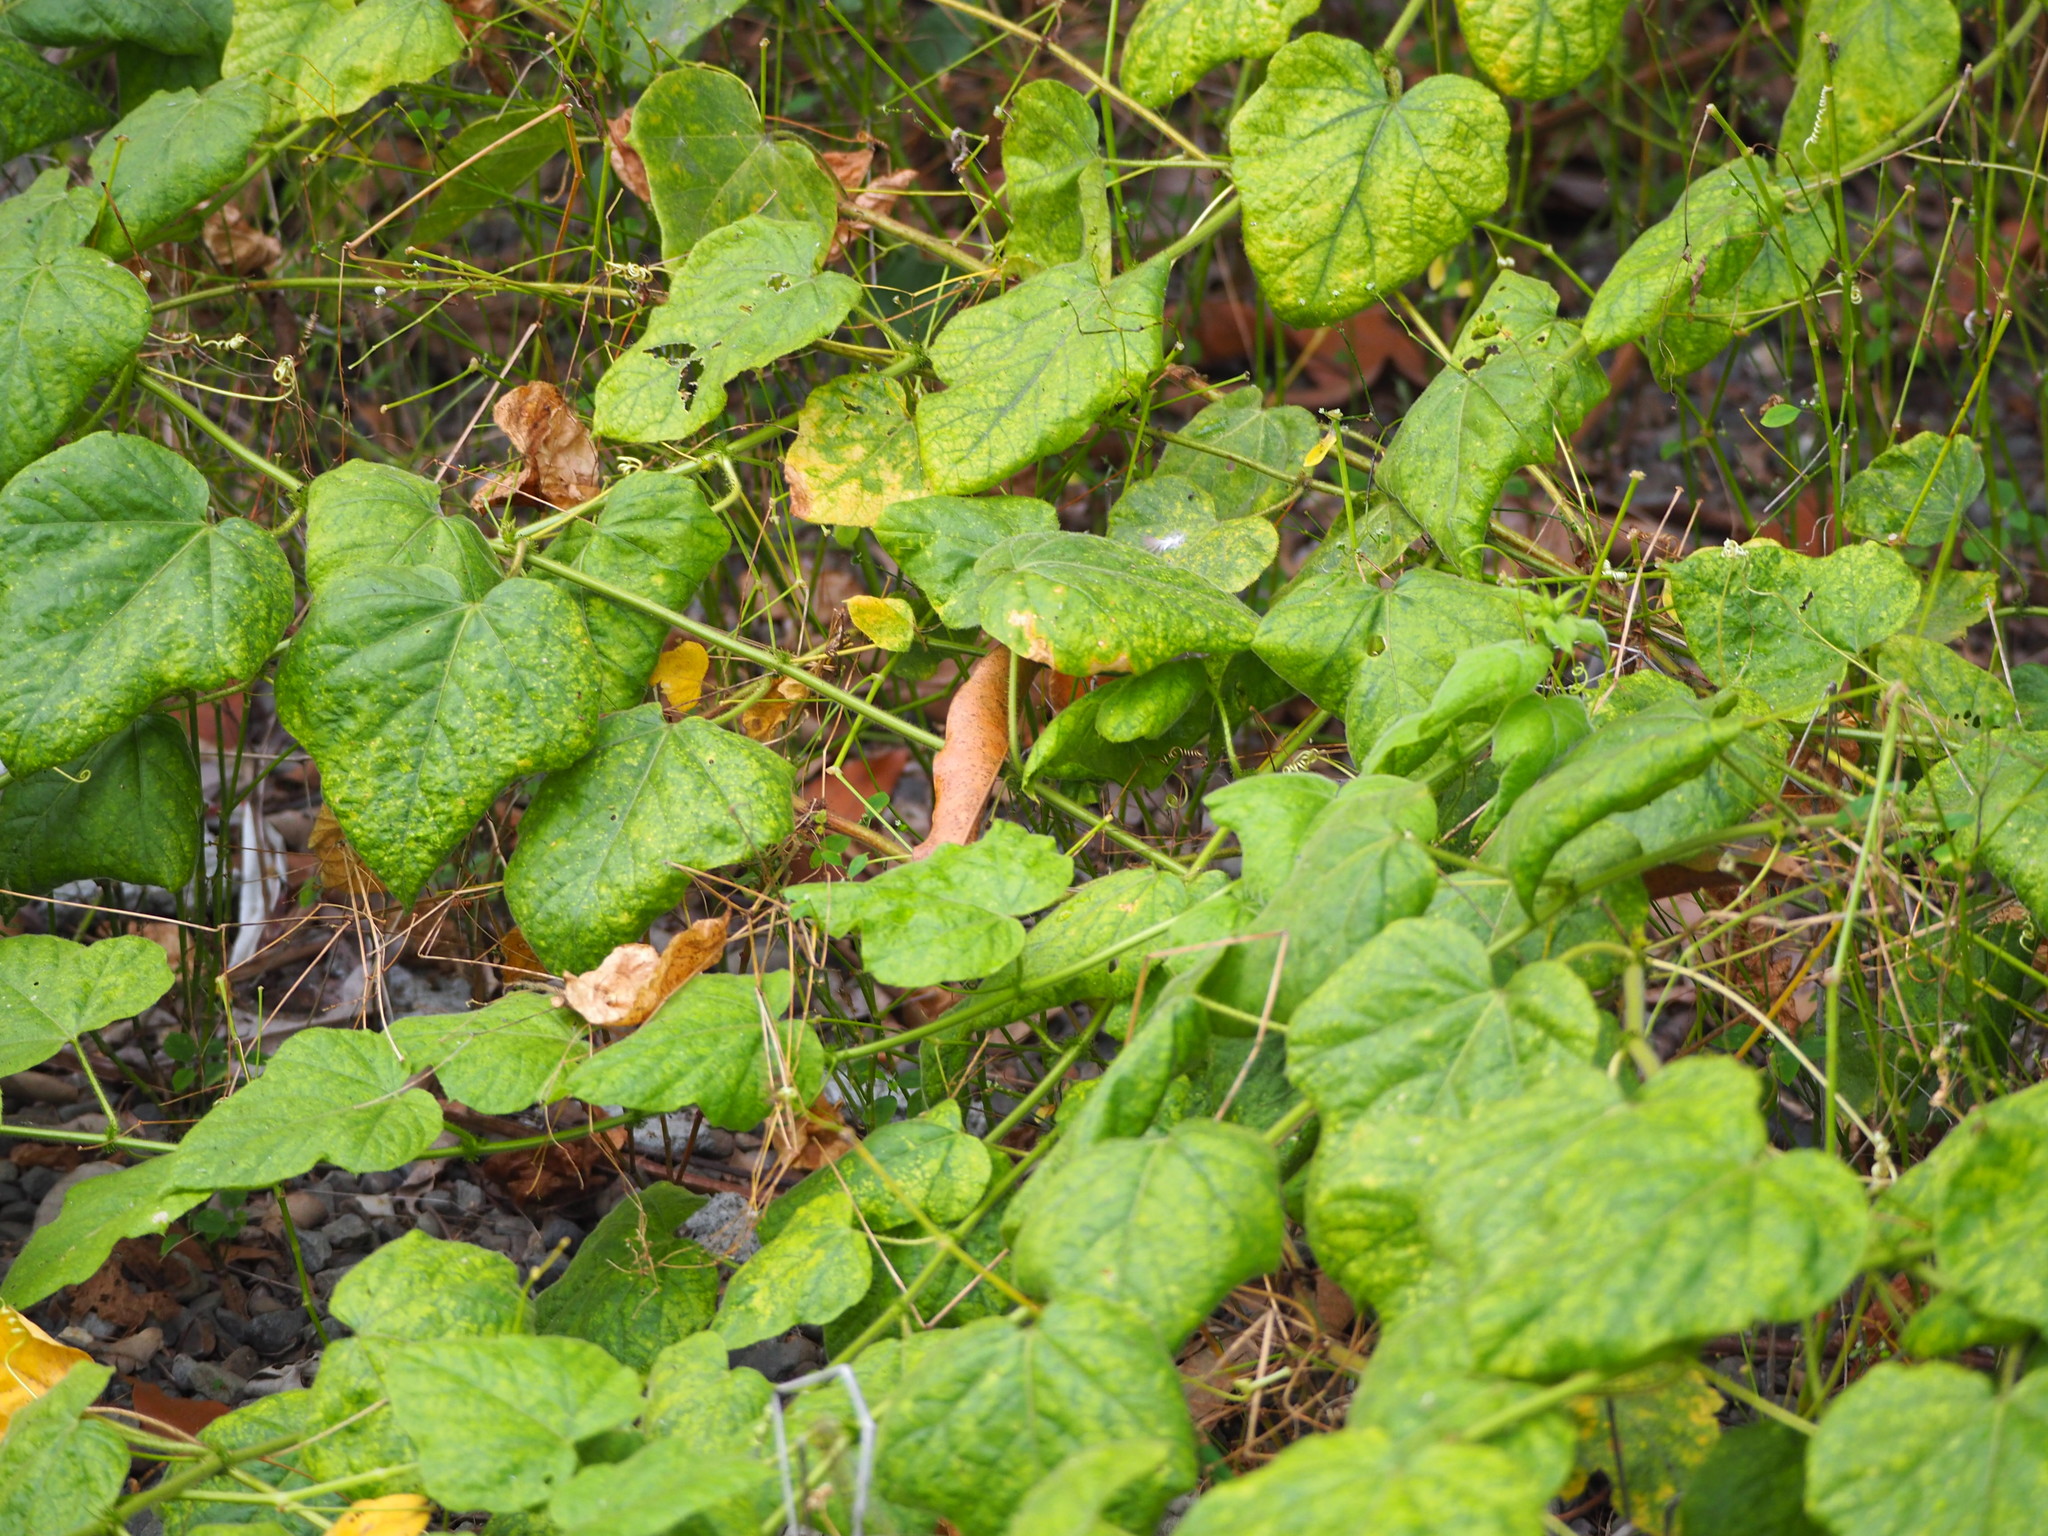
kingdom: Plantae
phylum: Tracheophyta
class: Magnoliopsida
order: Malpighiales
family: Passifloraceae
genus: Passiflora
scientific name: Passiflora vesicaria
